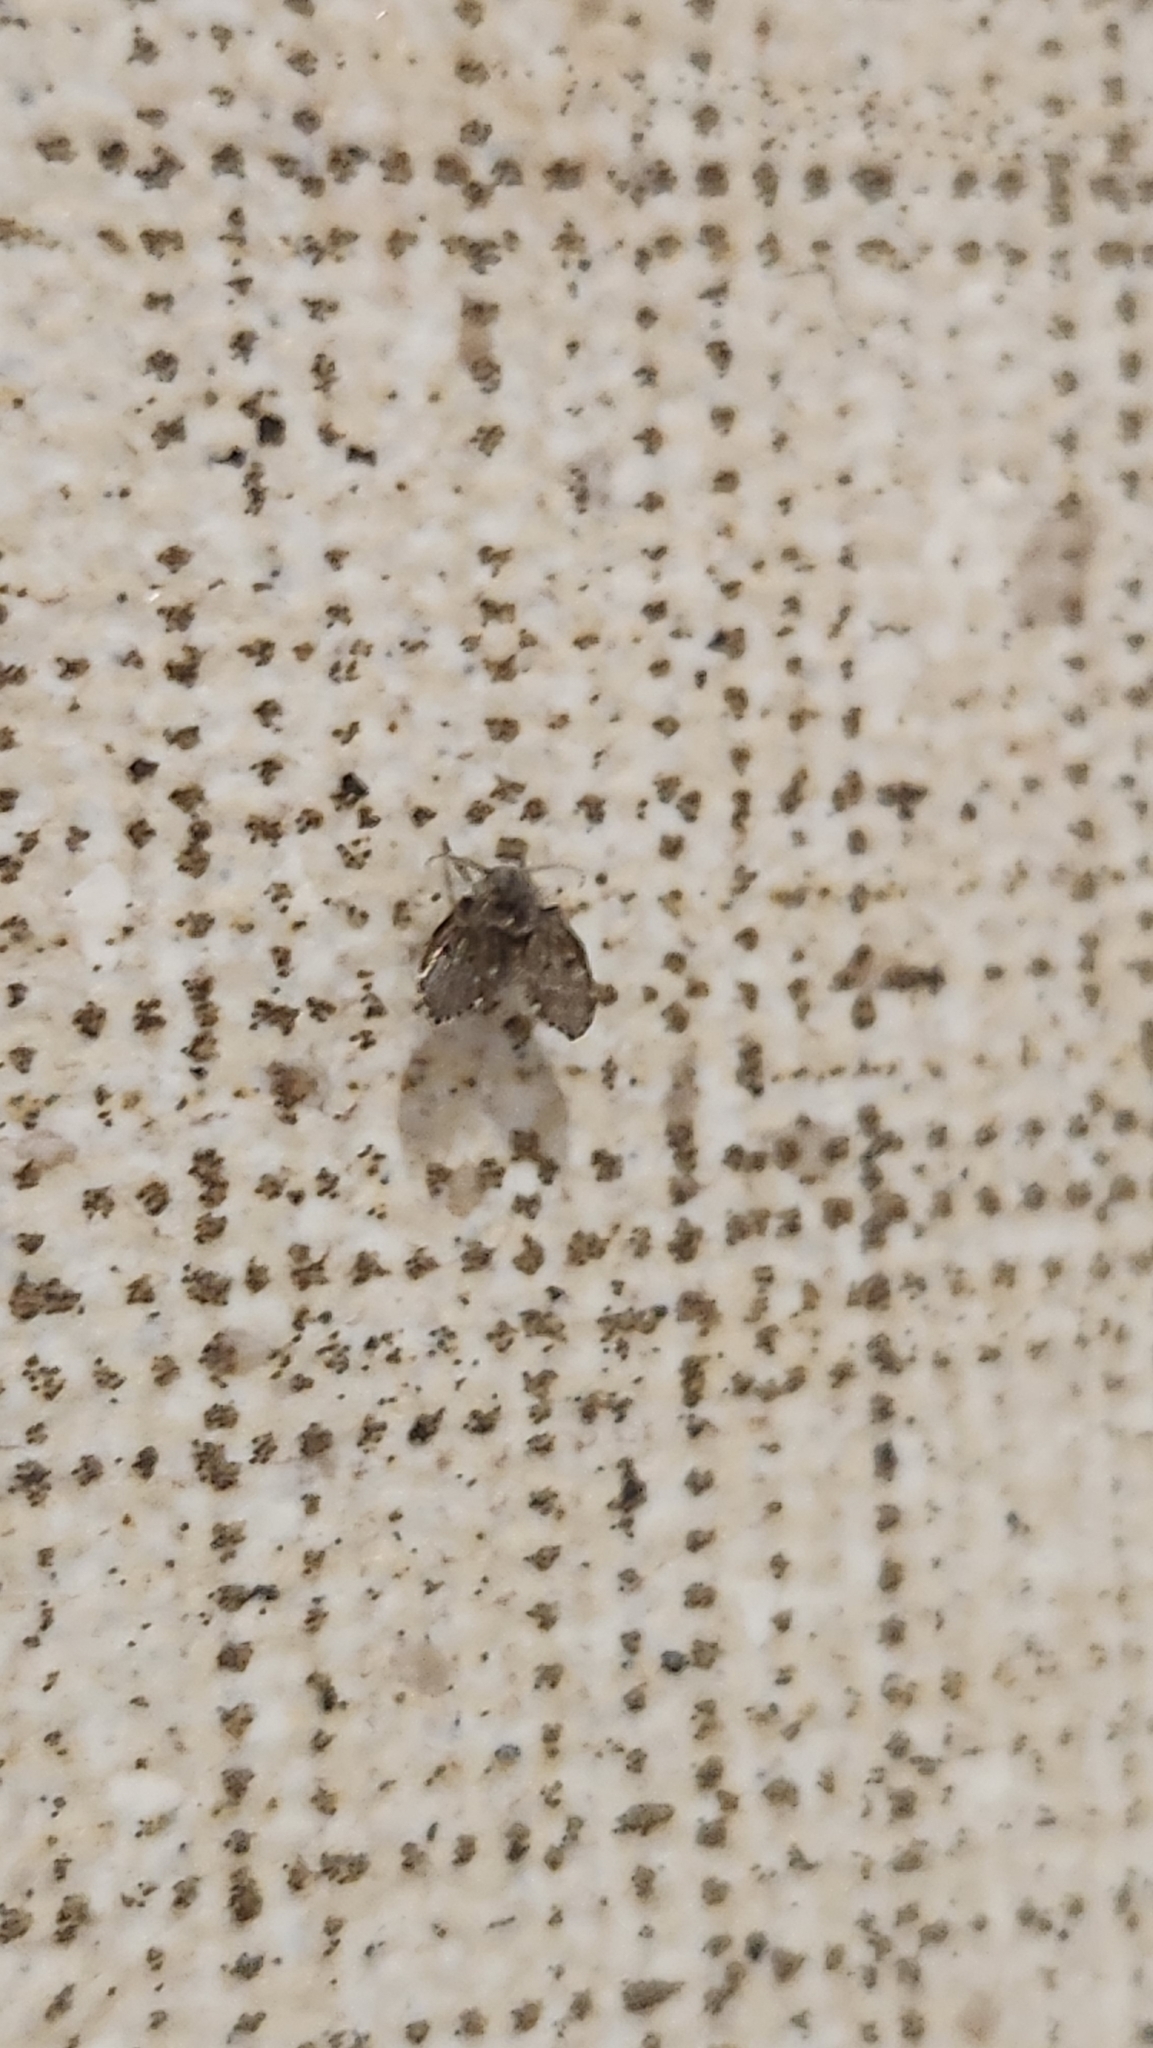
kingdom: Animalia
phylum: Arthropoda
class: Insecta
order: Diptera
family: Psychodidae
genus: Clogmia
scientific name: Clogmia albipunctatus
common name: White-spotted moth fly
